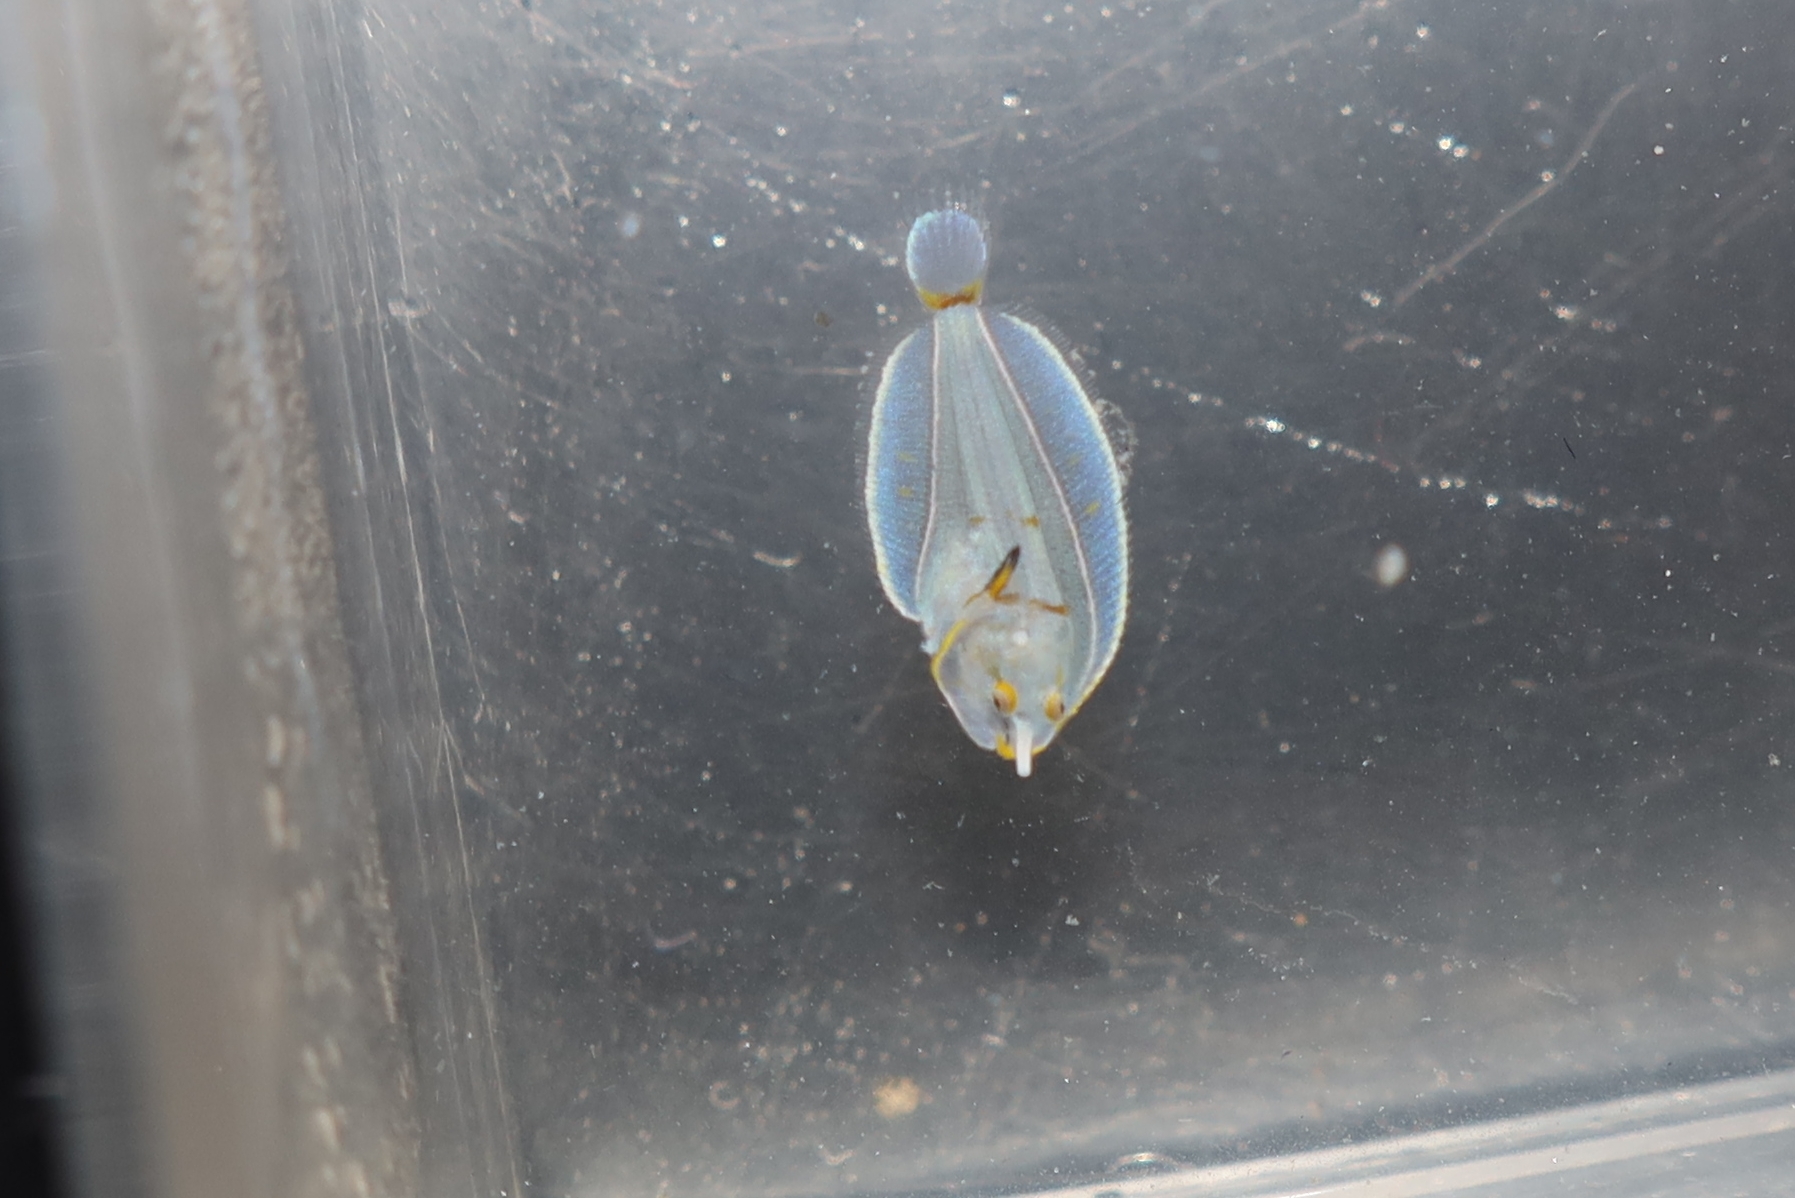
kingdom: Animalia
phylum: Chordata
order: Pleuronectiformes
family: Soleidae
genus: Monochirus
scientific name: Monochirus hispidus
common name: Whiskered sole
